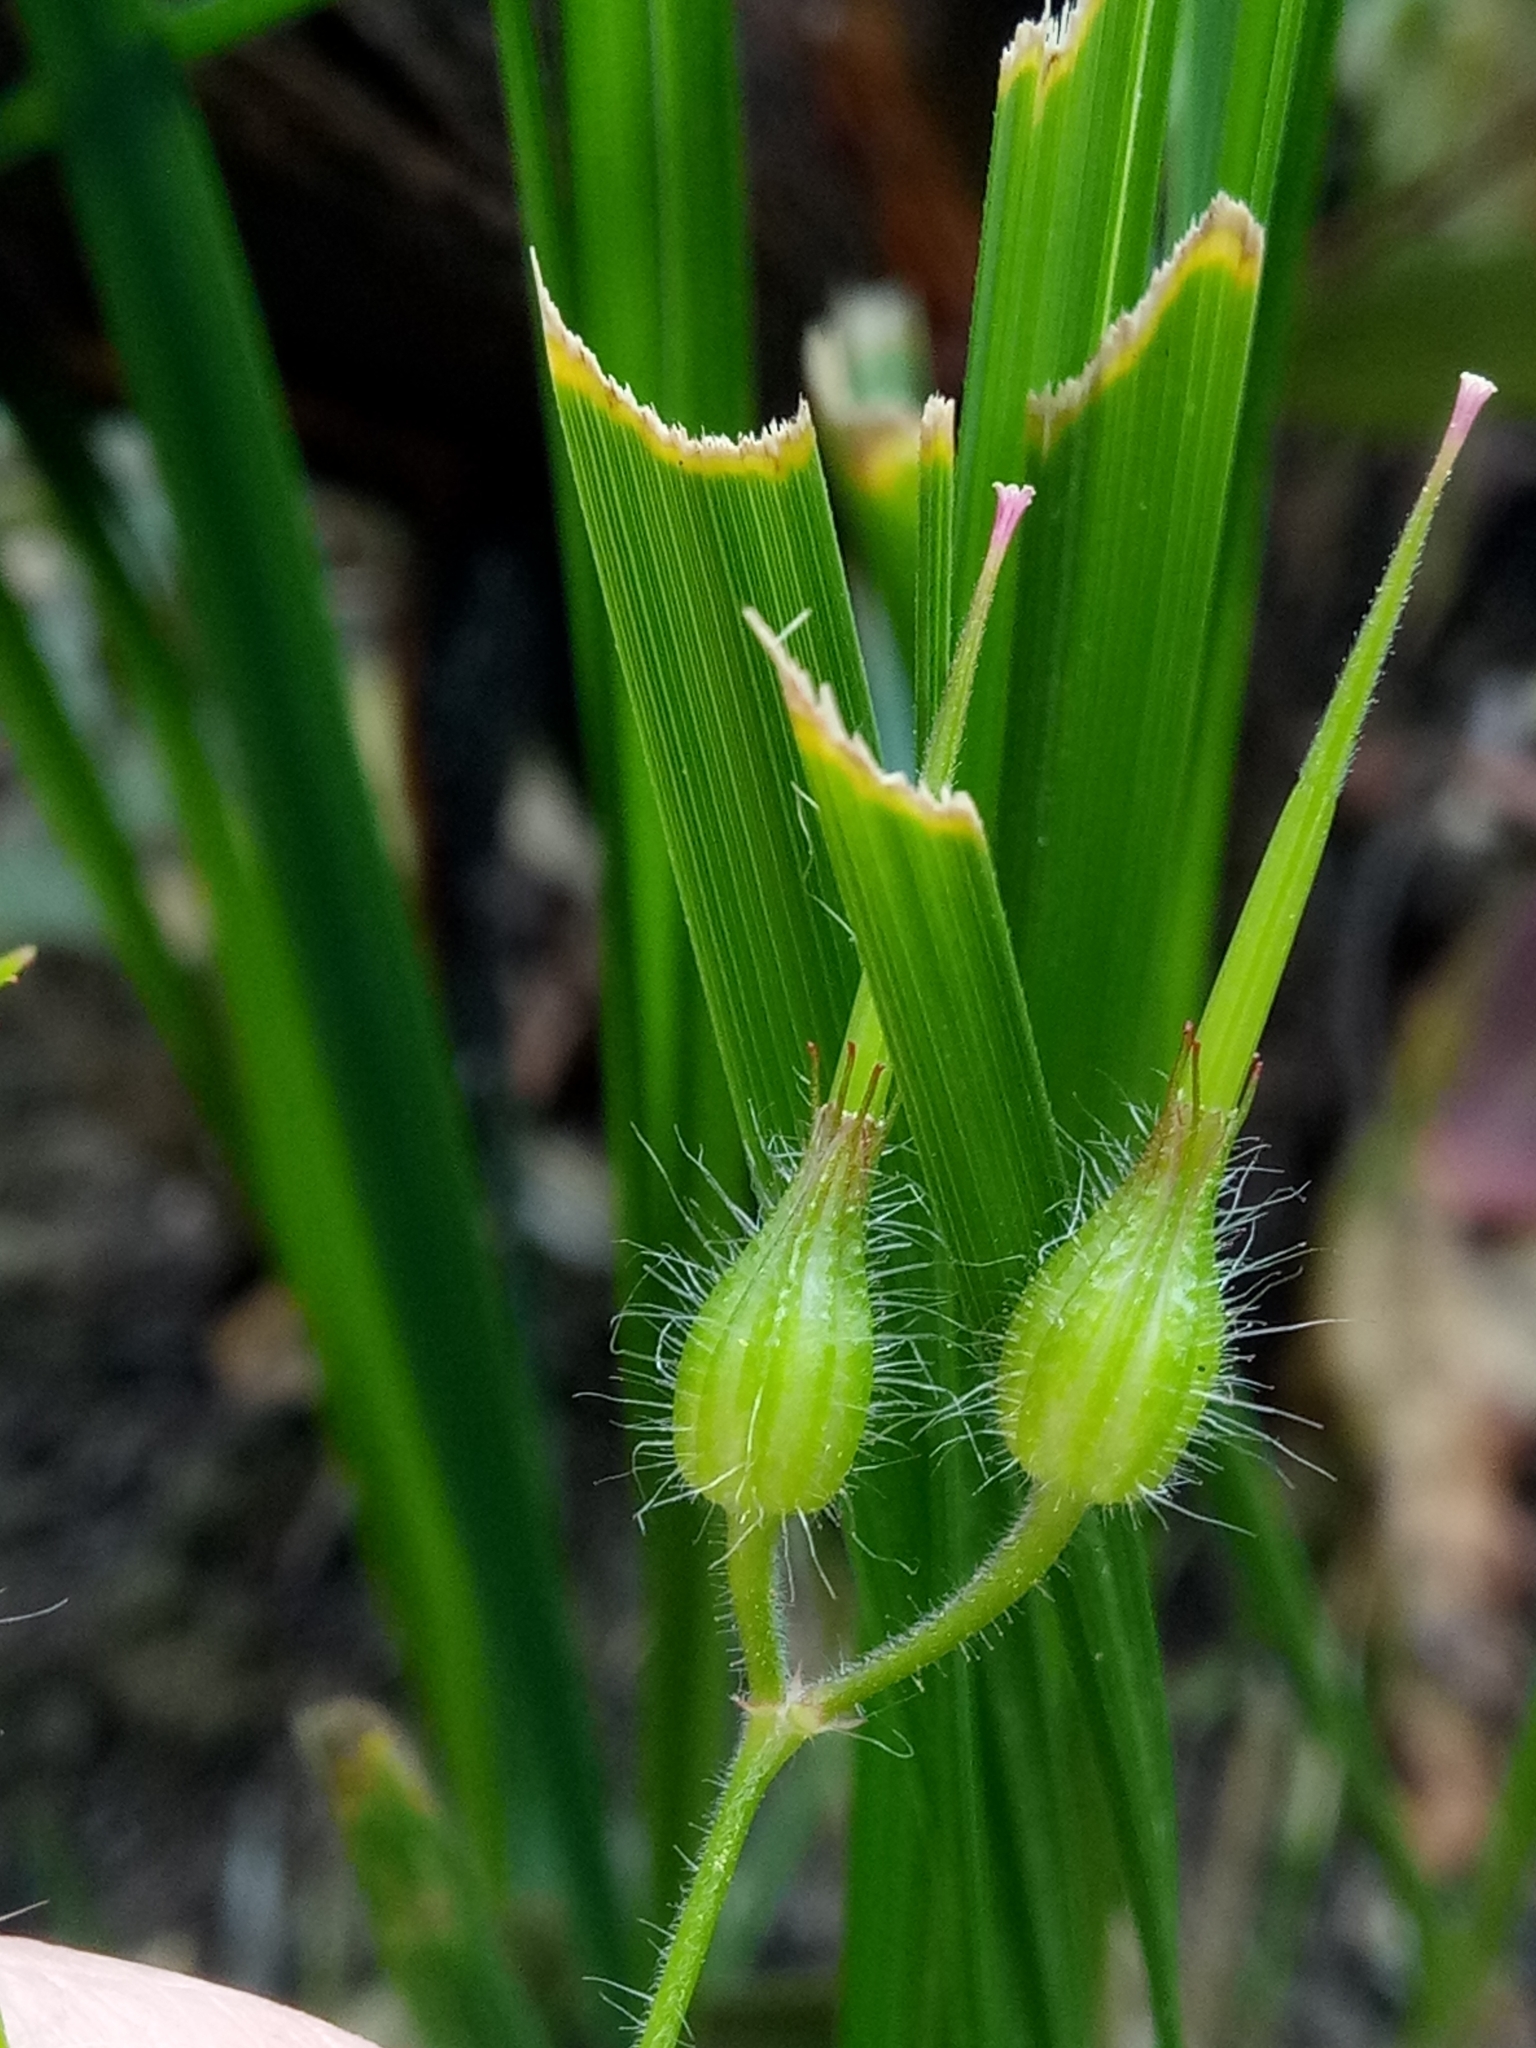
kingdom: Plantae
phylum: Tracheophyta
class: Magnoliopsida
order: Geraniales
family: Geraniaceae
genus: Geranium
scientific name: Geranium purpureum
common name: Little-robin
